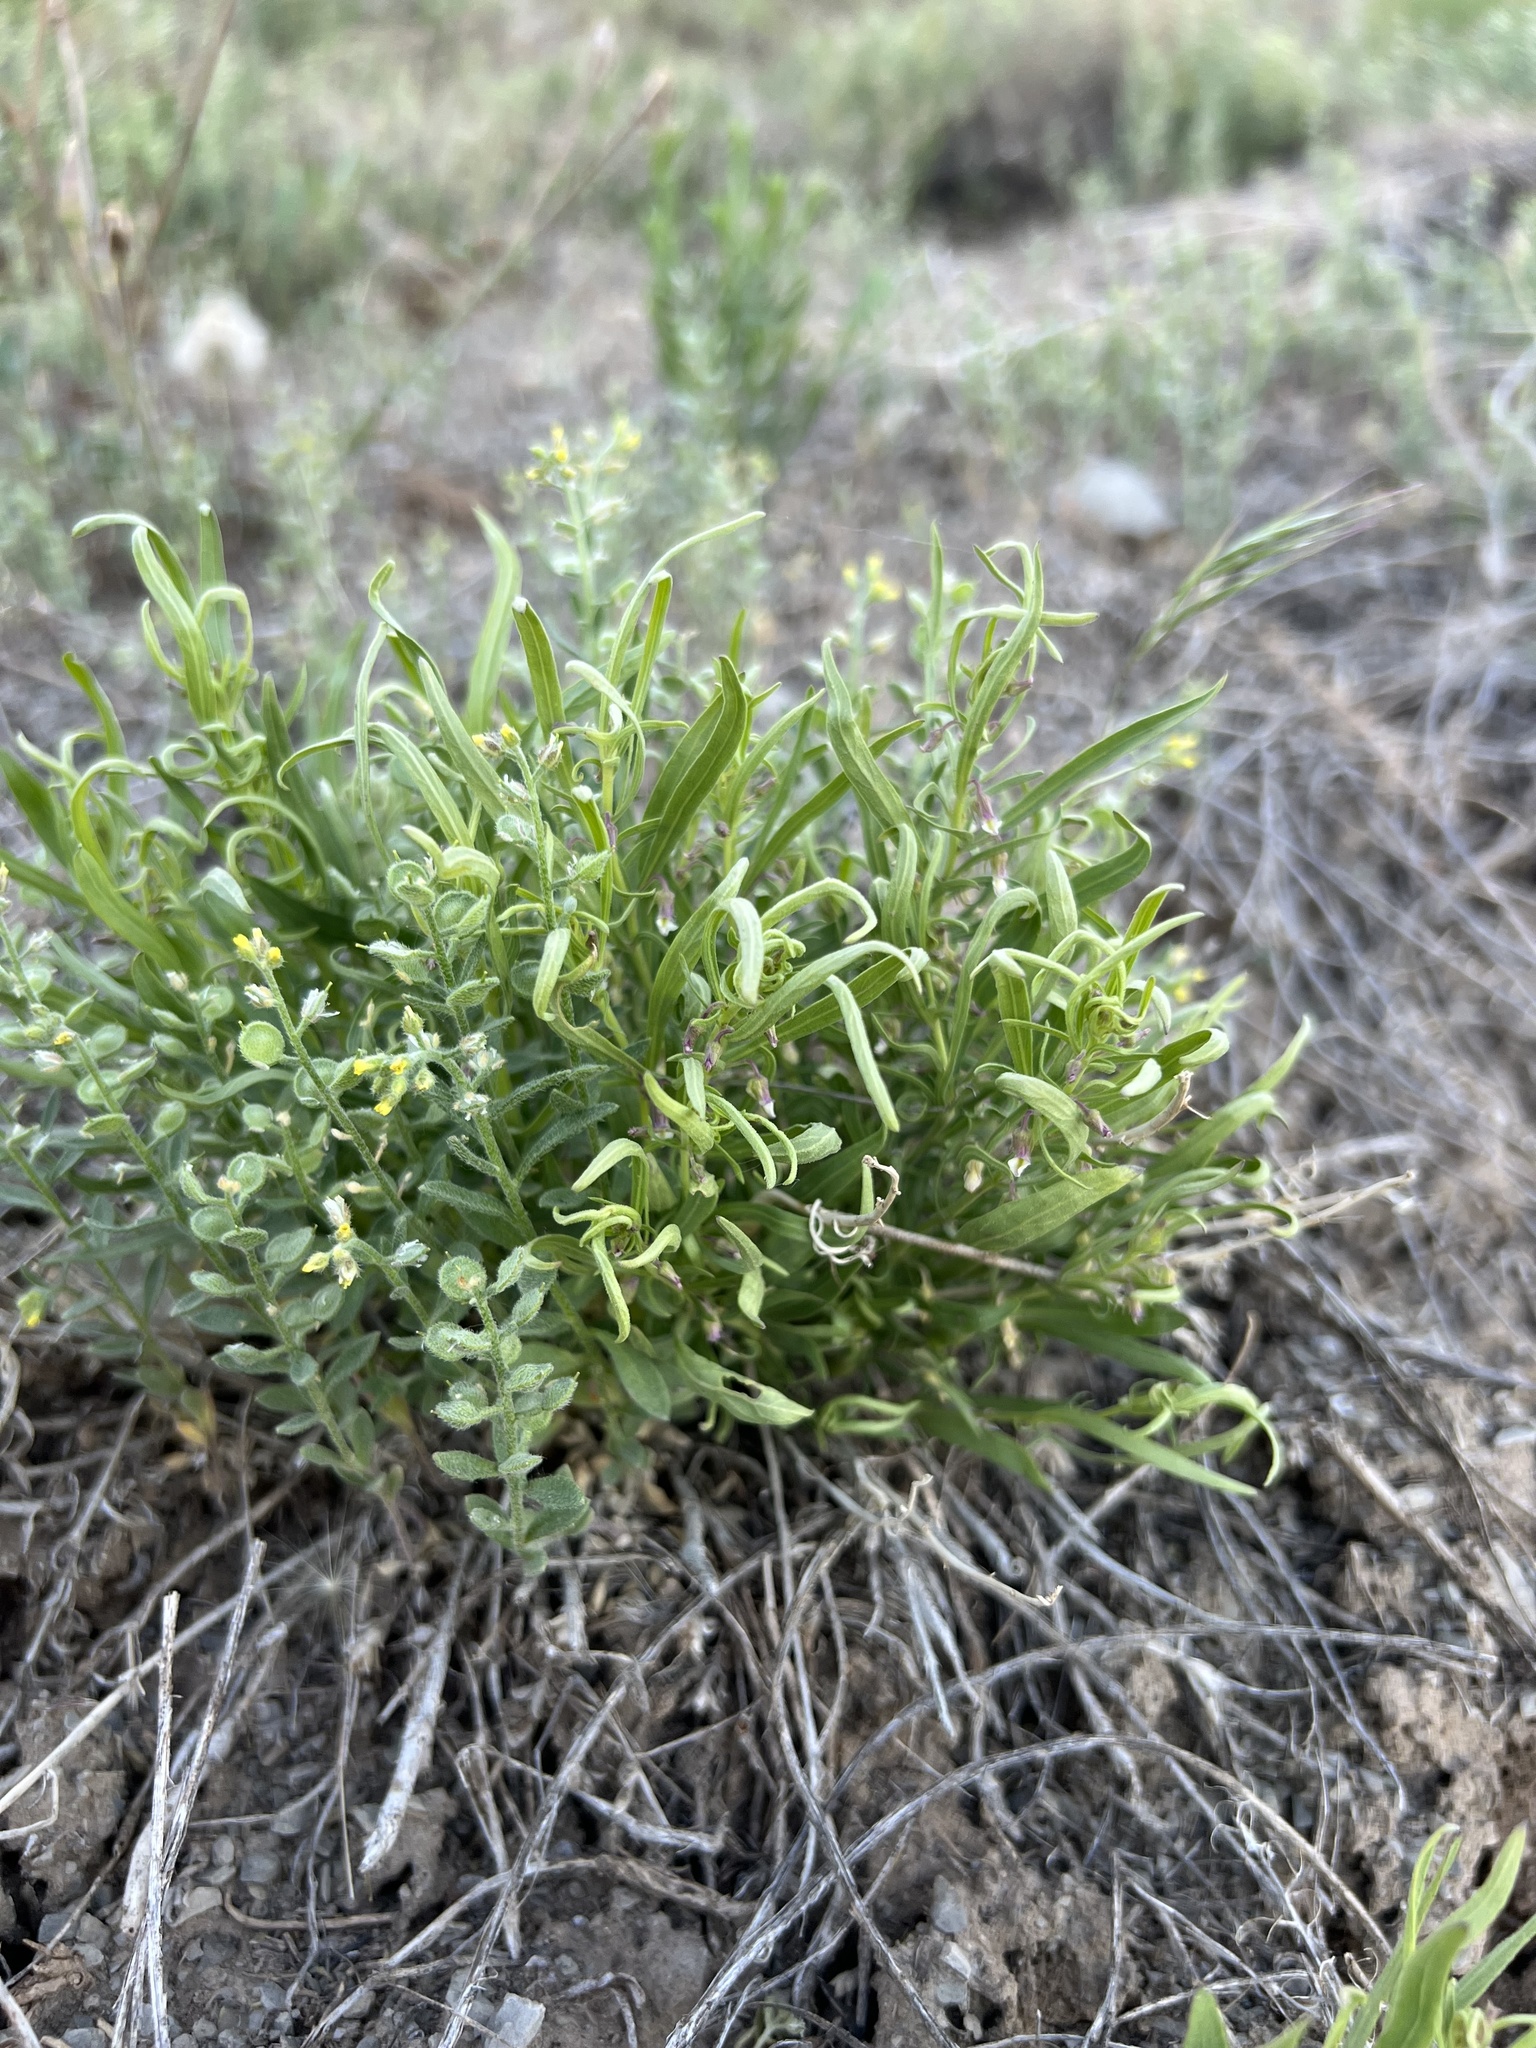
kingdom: Plantae
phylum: Tracheophyta
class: Magnoliopsida
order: Malpighiales
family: Violaceae
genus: Pombalia
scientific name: Pombalia verticillata
